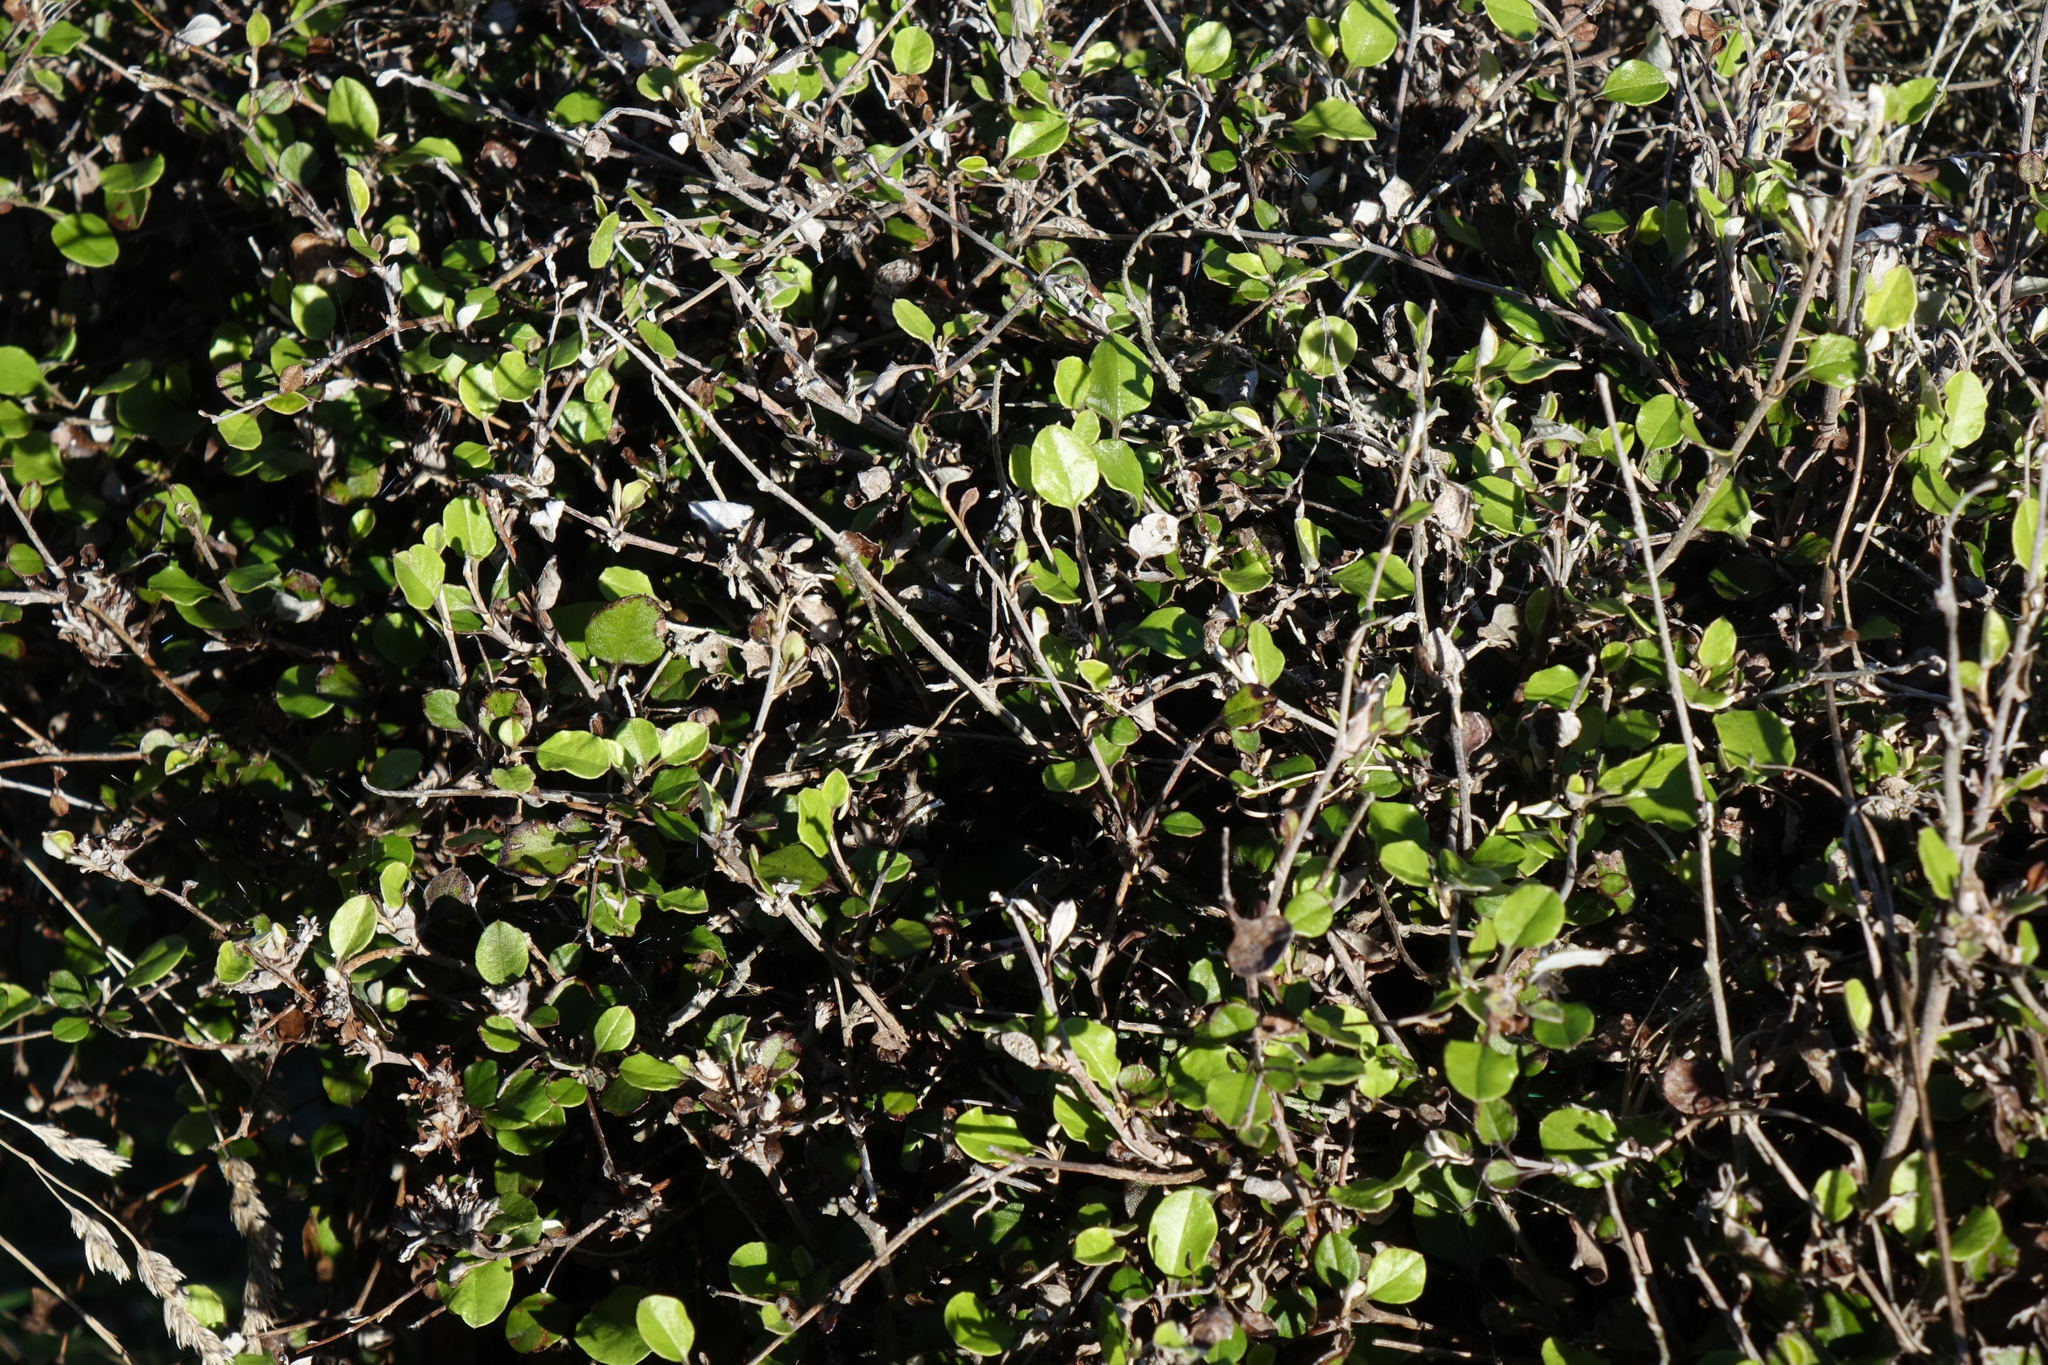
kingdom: Plantae
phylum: Tracheophyta
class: Magnoliopsida
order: Asterales
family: Asteraceae
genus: Ozothamnus
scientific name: Ozothamnus glomeratus
